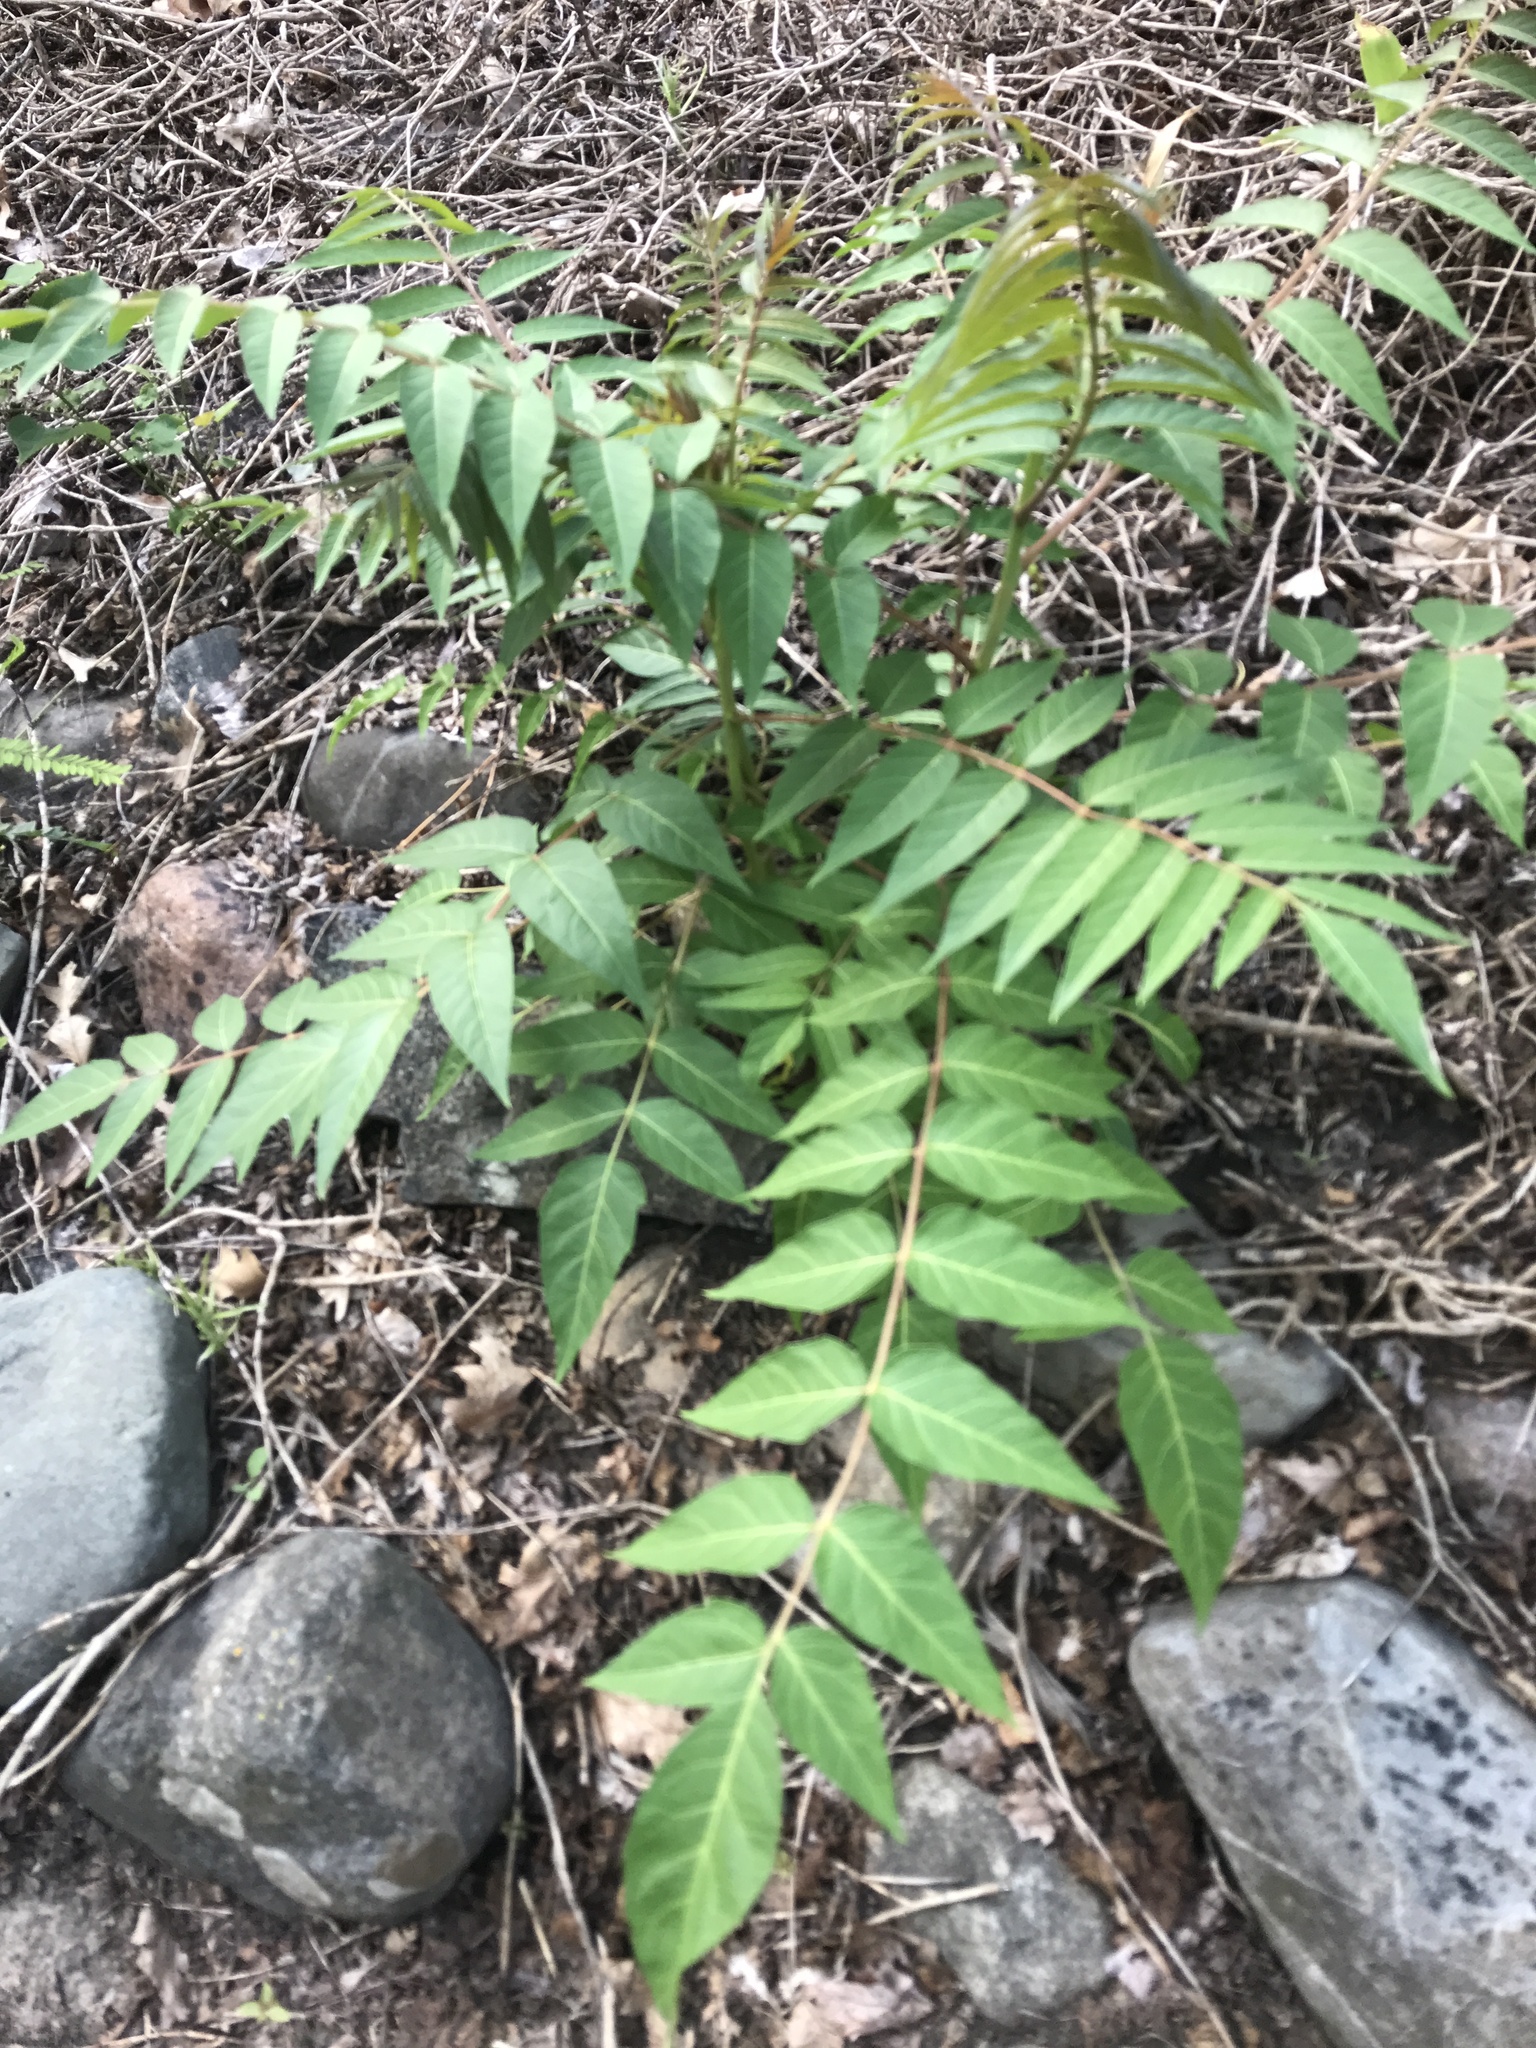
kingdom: Plantae
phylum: Tracheophyta
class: Magnoliopsida
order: Sapindales
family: Simaroubaceae
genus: Ailanthus
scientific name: Ailanthus altissima
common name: Tree-of-heaven
